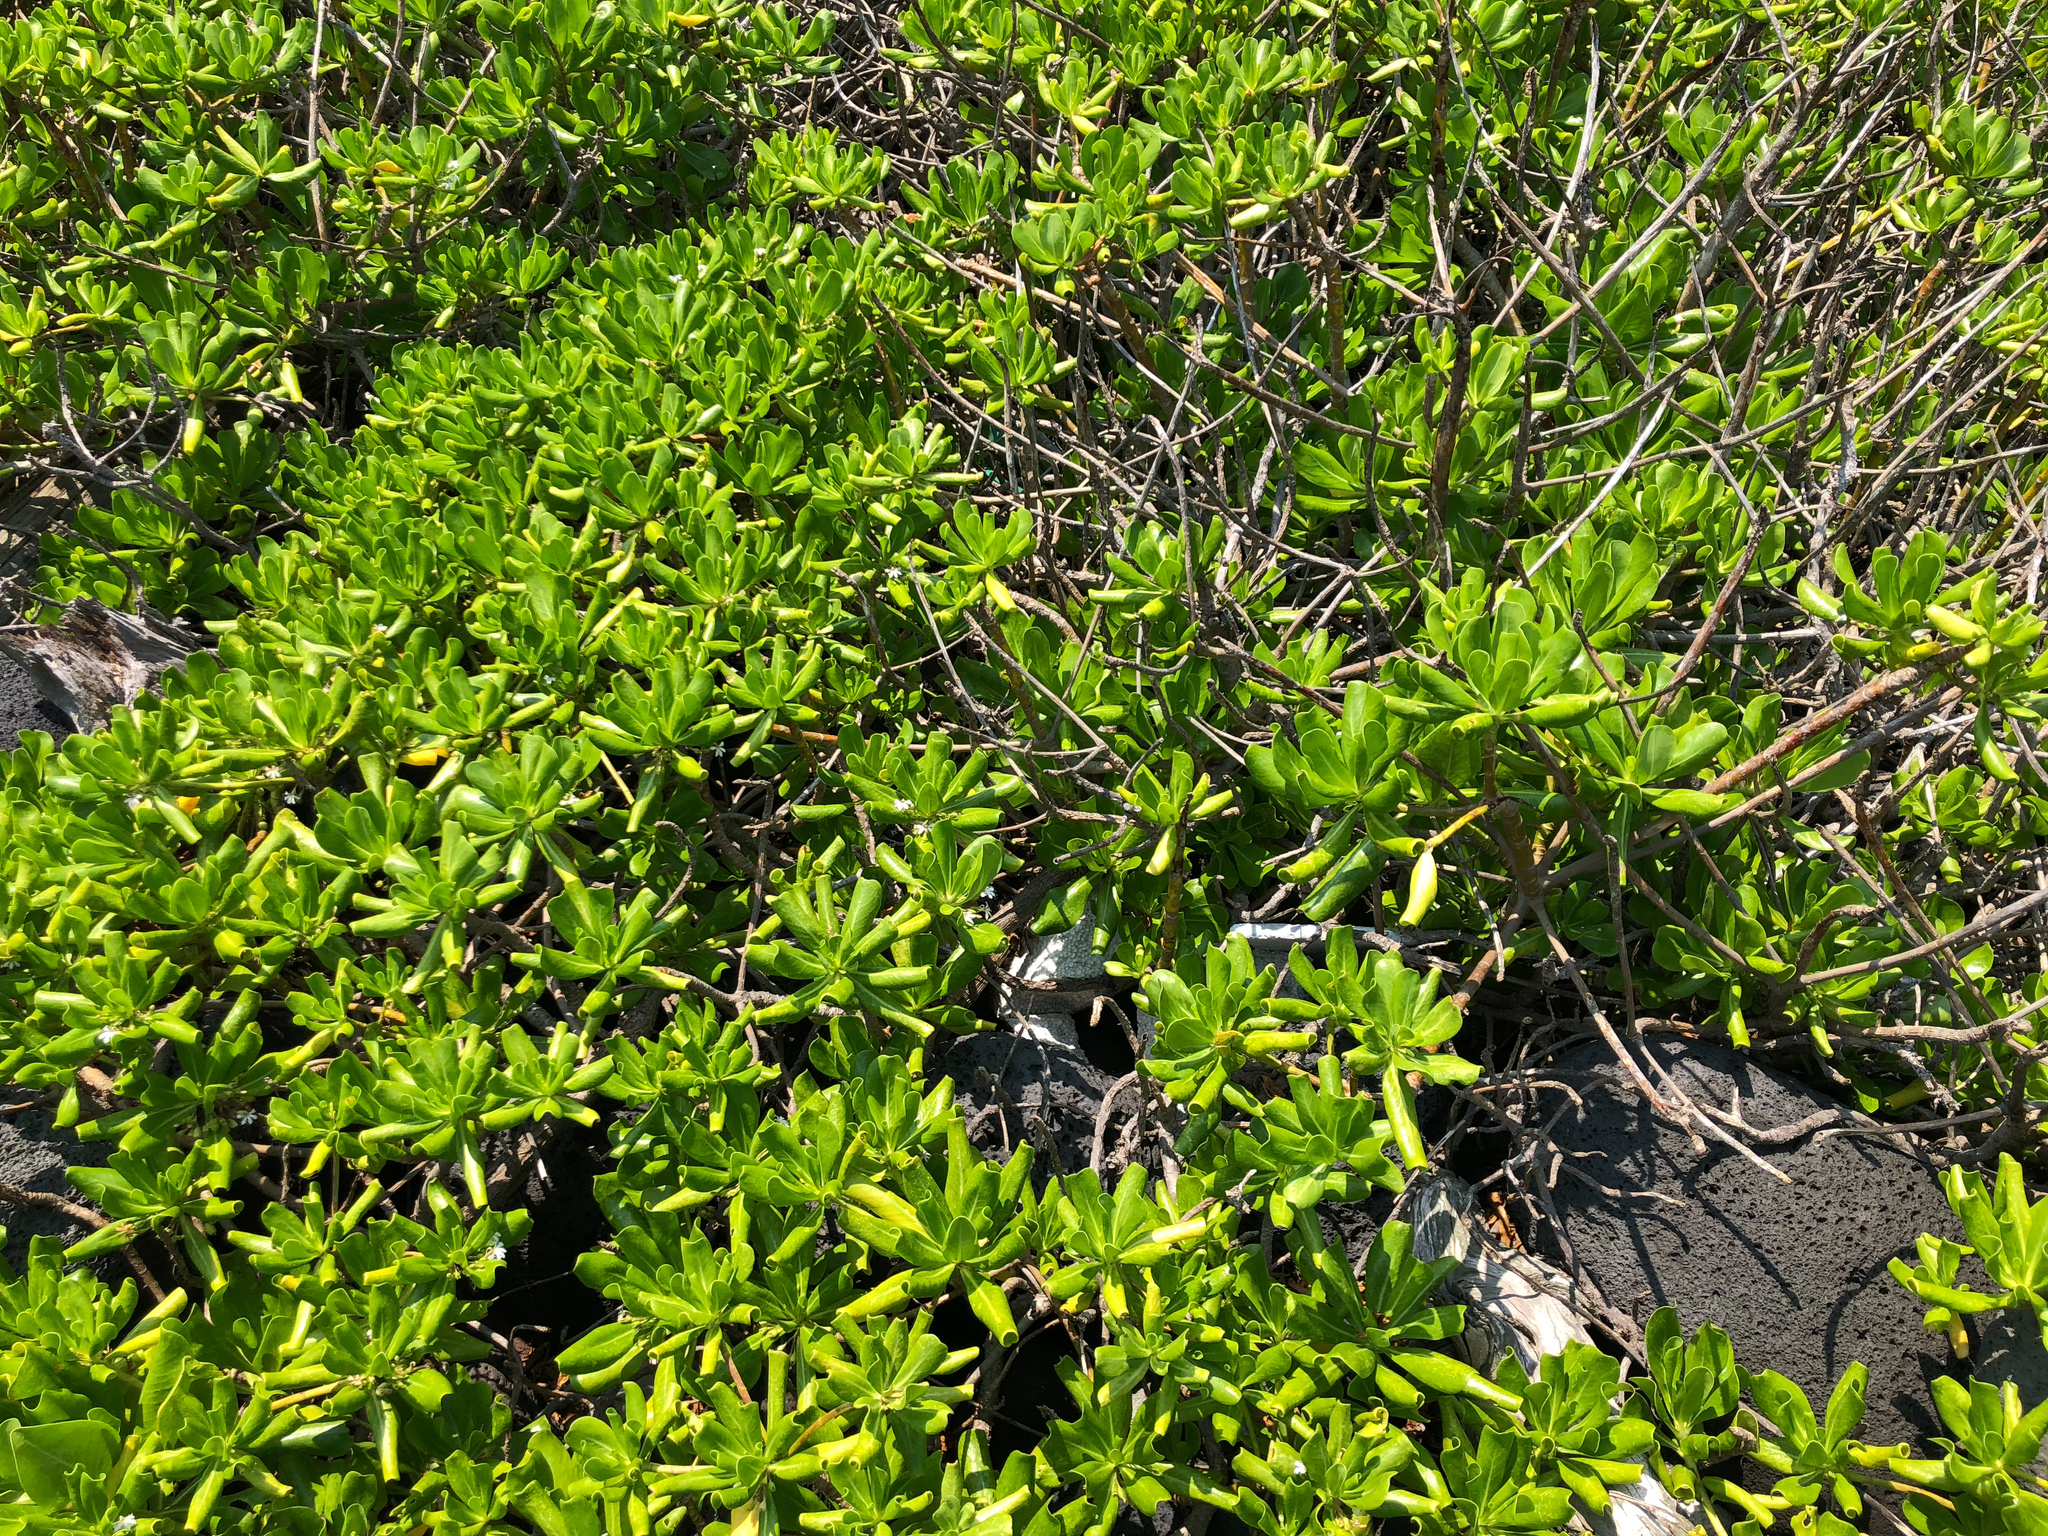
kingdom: Plantae
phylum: Tracheophyta
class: Magnoliopsida
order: Asterales
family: Goodeniaceae
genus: Scaevola
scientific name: Scaevola taccada
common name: Sea lettucetree
